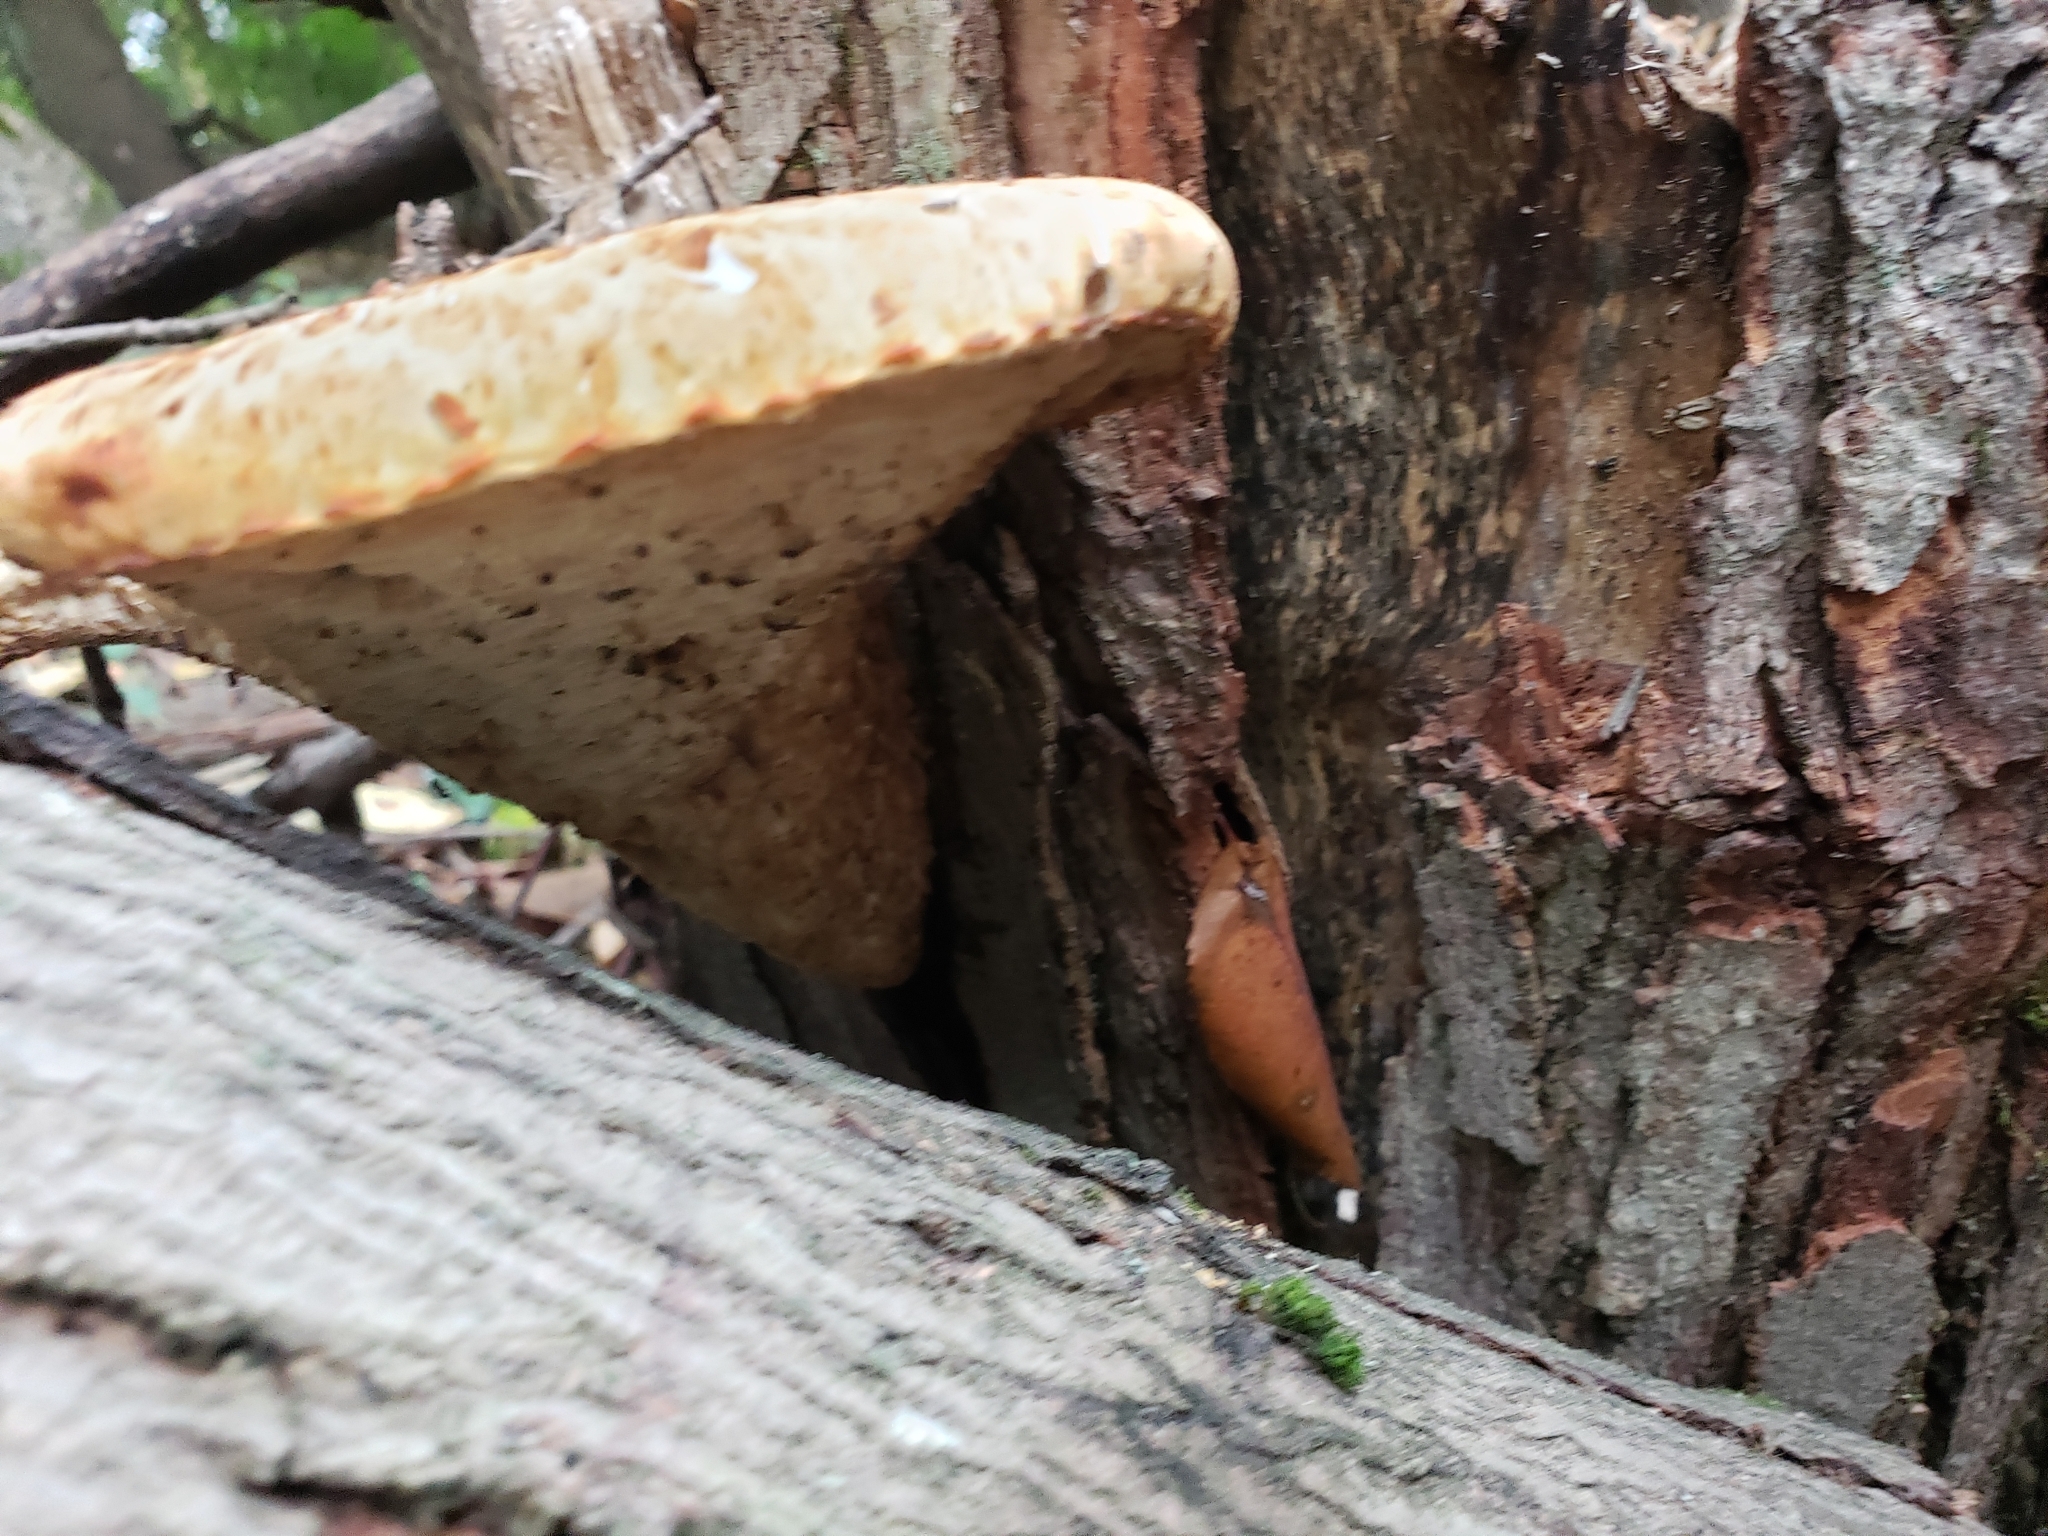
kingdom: Fungi
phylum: Basidiomycota
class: Agaricomycetes
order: Polyporales
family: Polyporaceae
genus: Cerioporus
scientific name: Cerioporus squamosus
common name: Dryad's saddle
